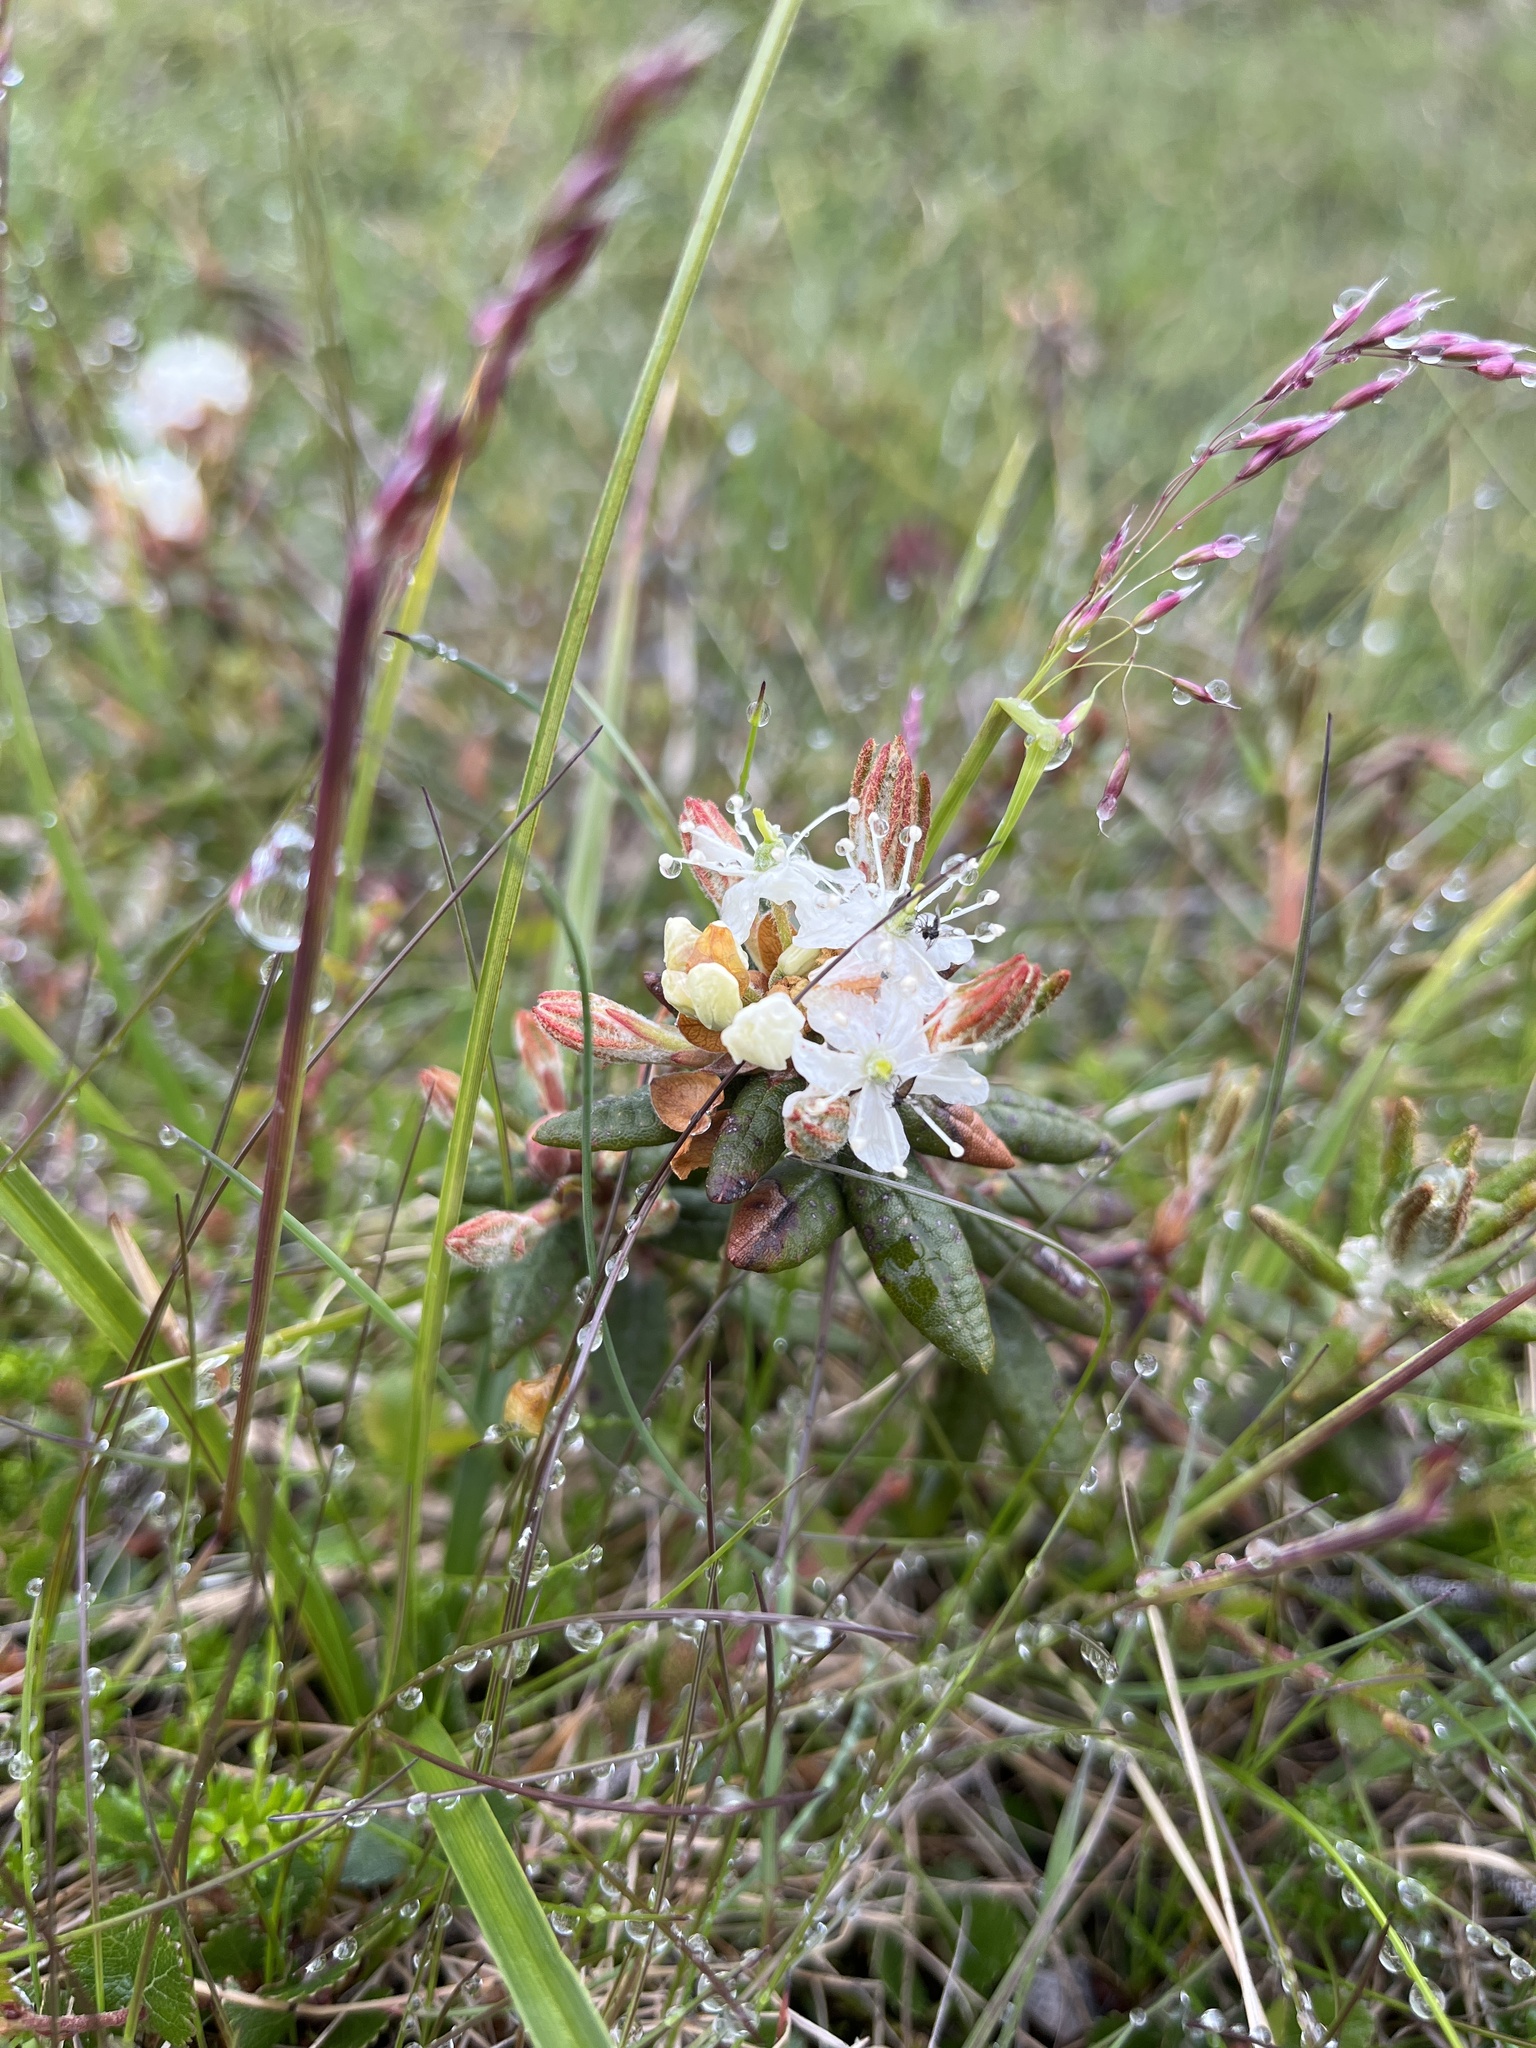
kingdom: Plantae
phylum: Tracheophyta
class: Magnoliopsida
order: Ericales
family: Ericaceae
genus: Rhododendron
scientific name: Rhododendron groenlandicum
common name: Bog labrador tea
